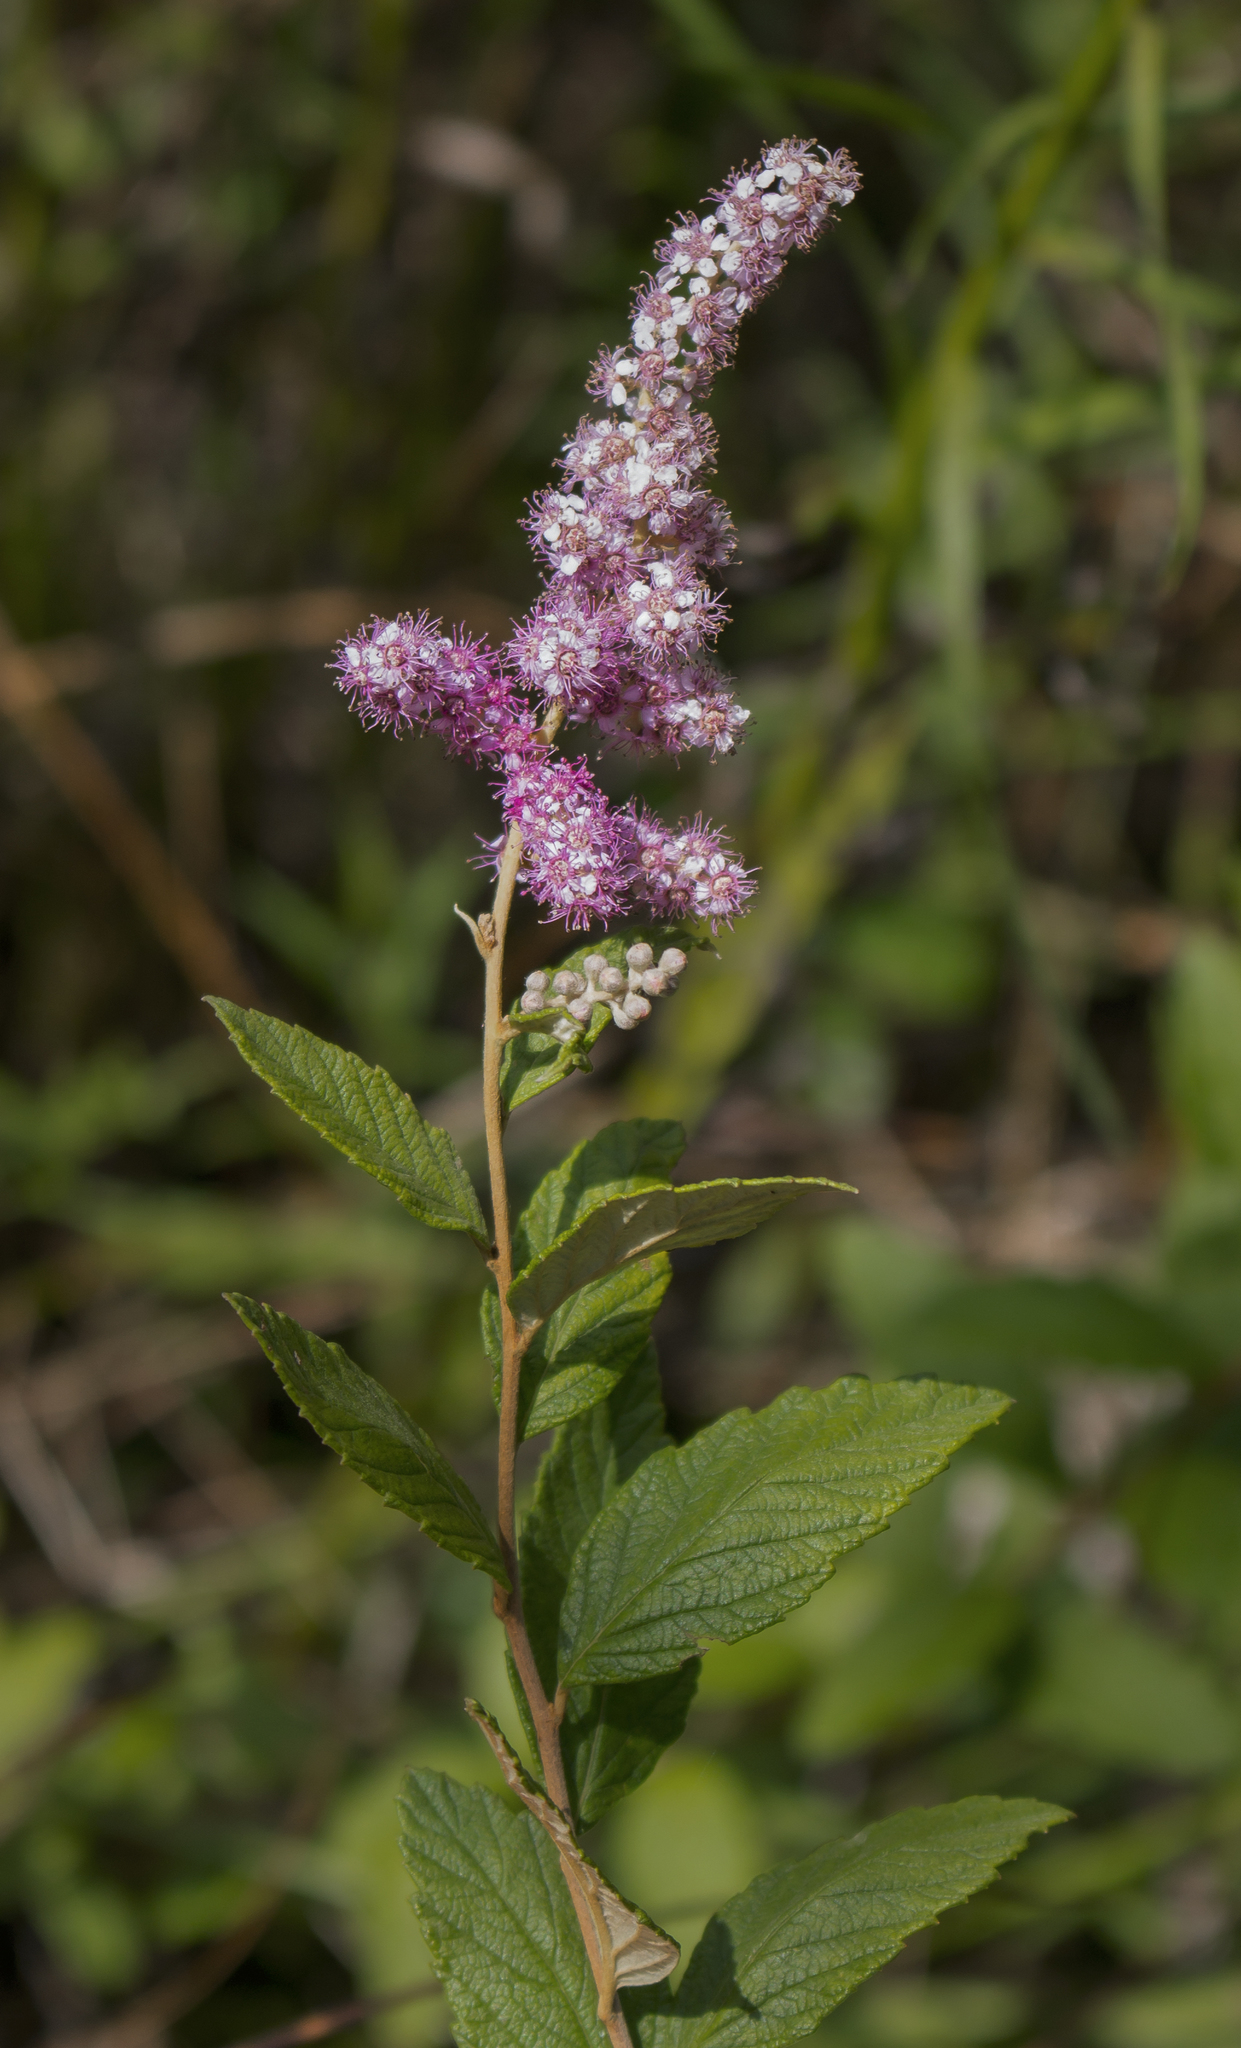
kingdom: Plantae
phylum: Tracheophyta
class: Magnoliopsida
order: Rosales
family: Rosaceae
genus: Spiraea
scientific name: Spiraea tomentosa
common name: Hardhack
